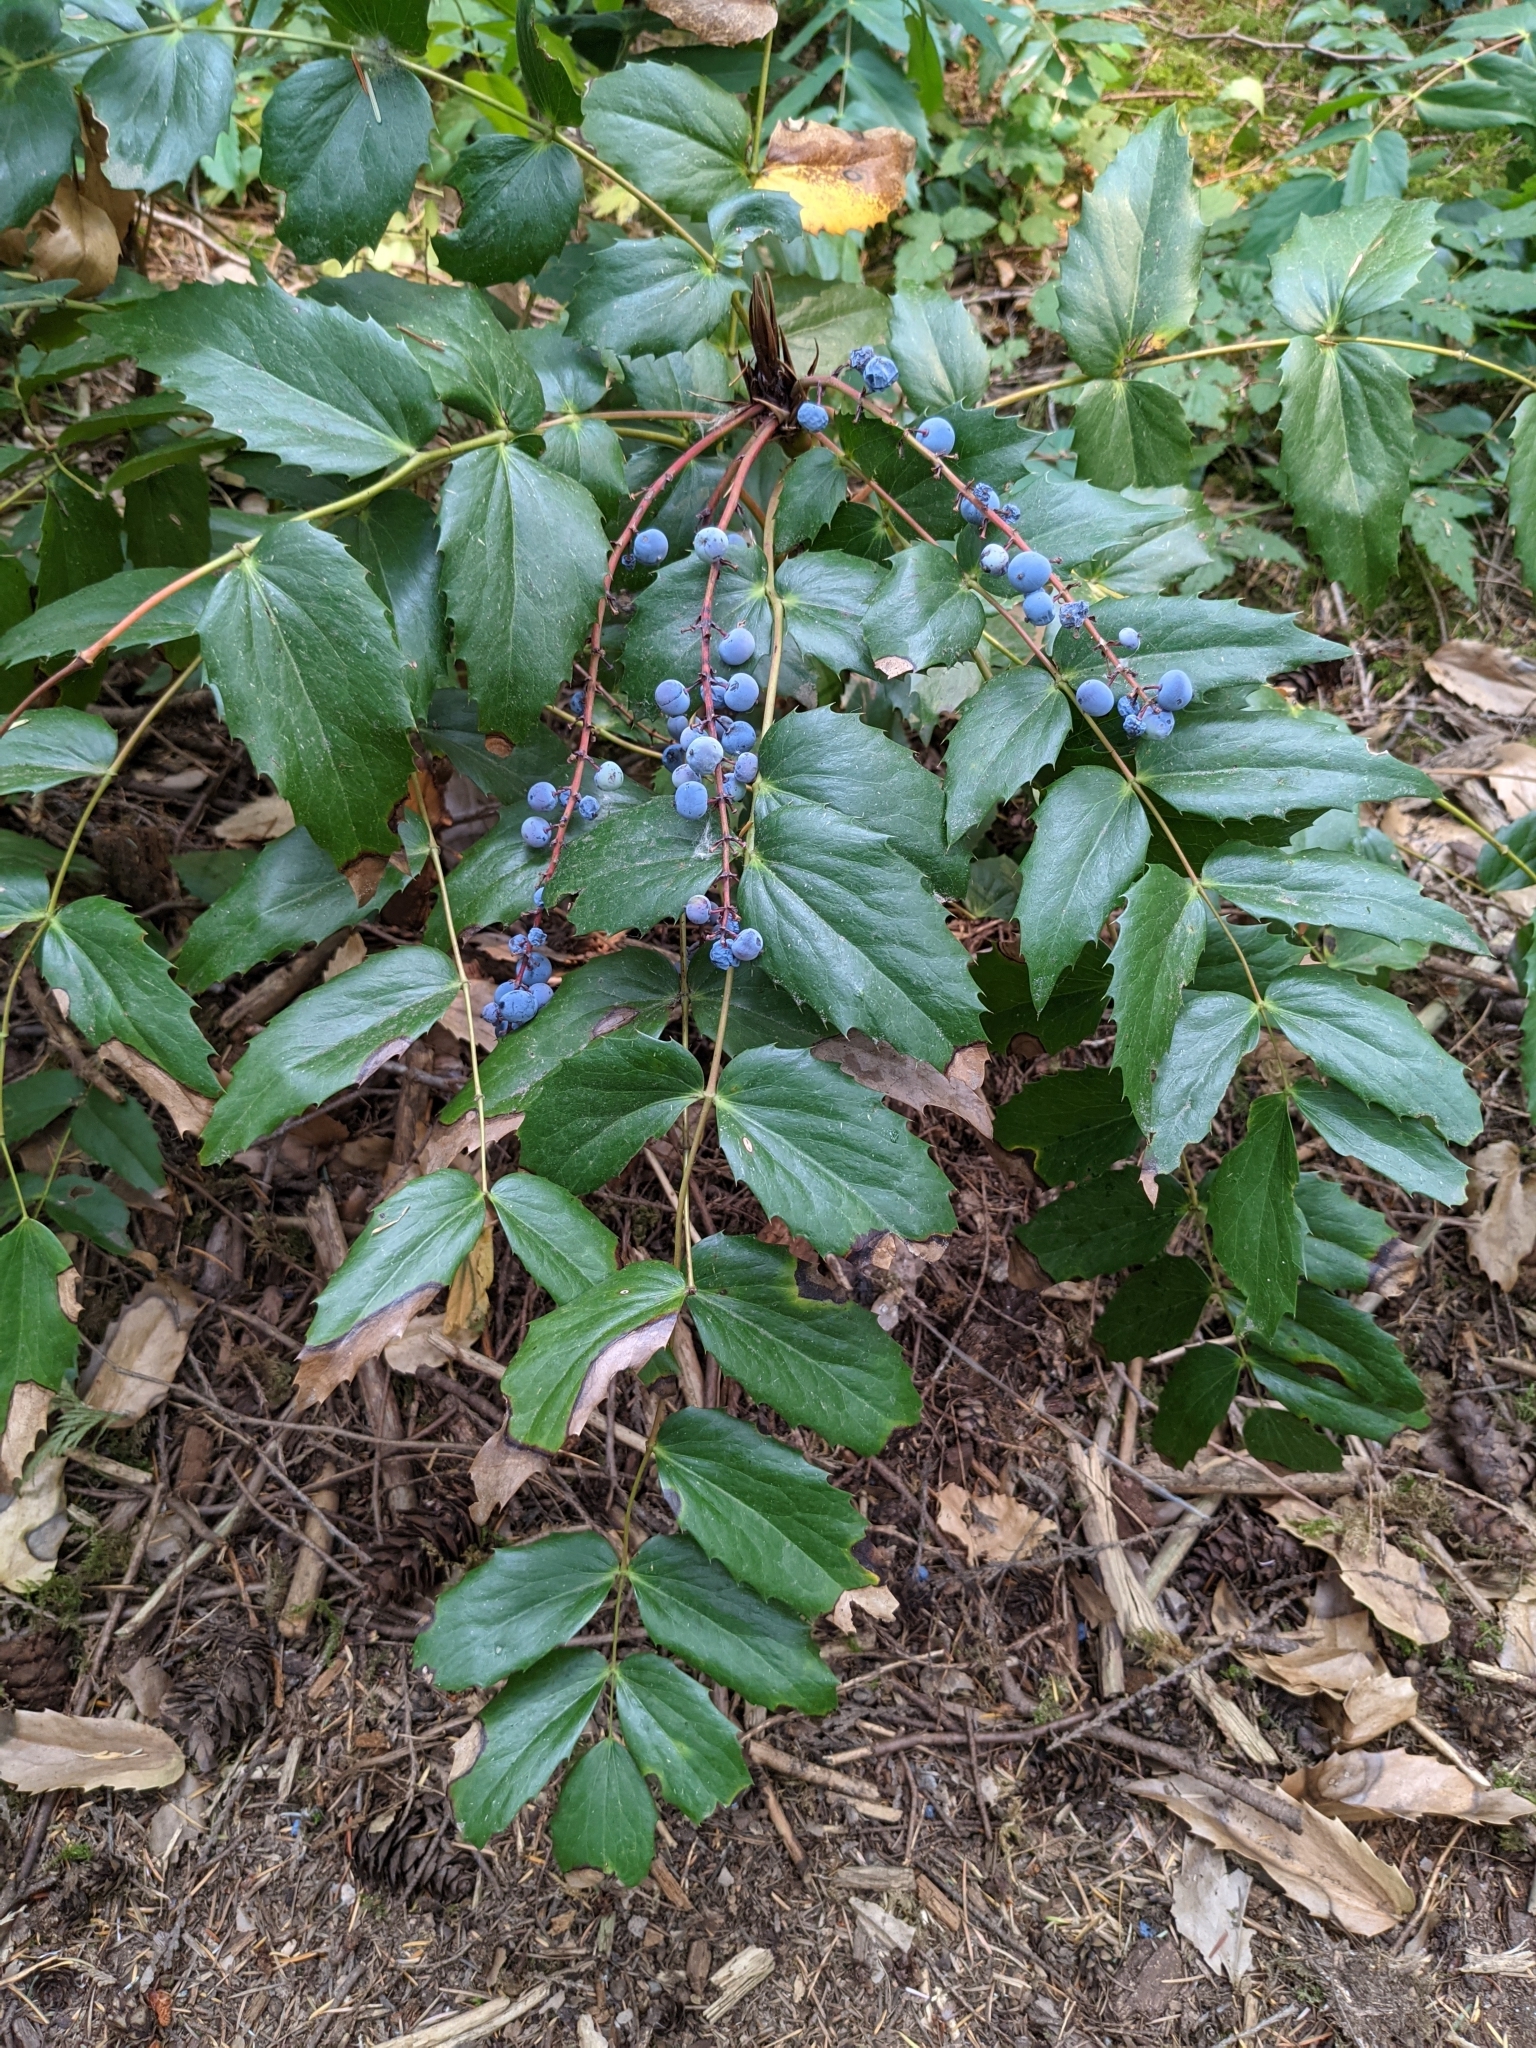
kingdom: Plantae
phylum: Tracheophyta
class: Magnoliopsida
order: Ranunculales
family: Berberidaceae
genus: Mahonia
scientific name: Mahonia nervosa
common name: Cascade oregon-grape
